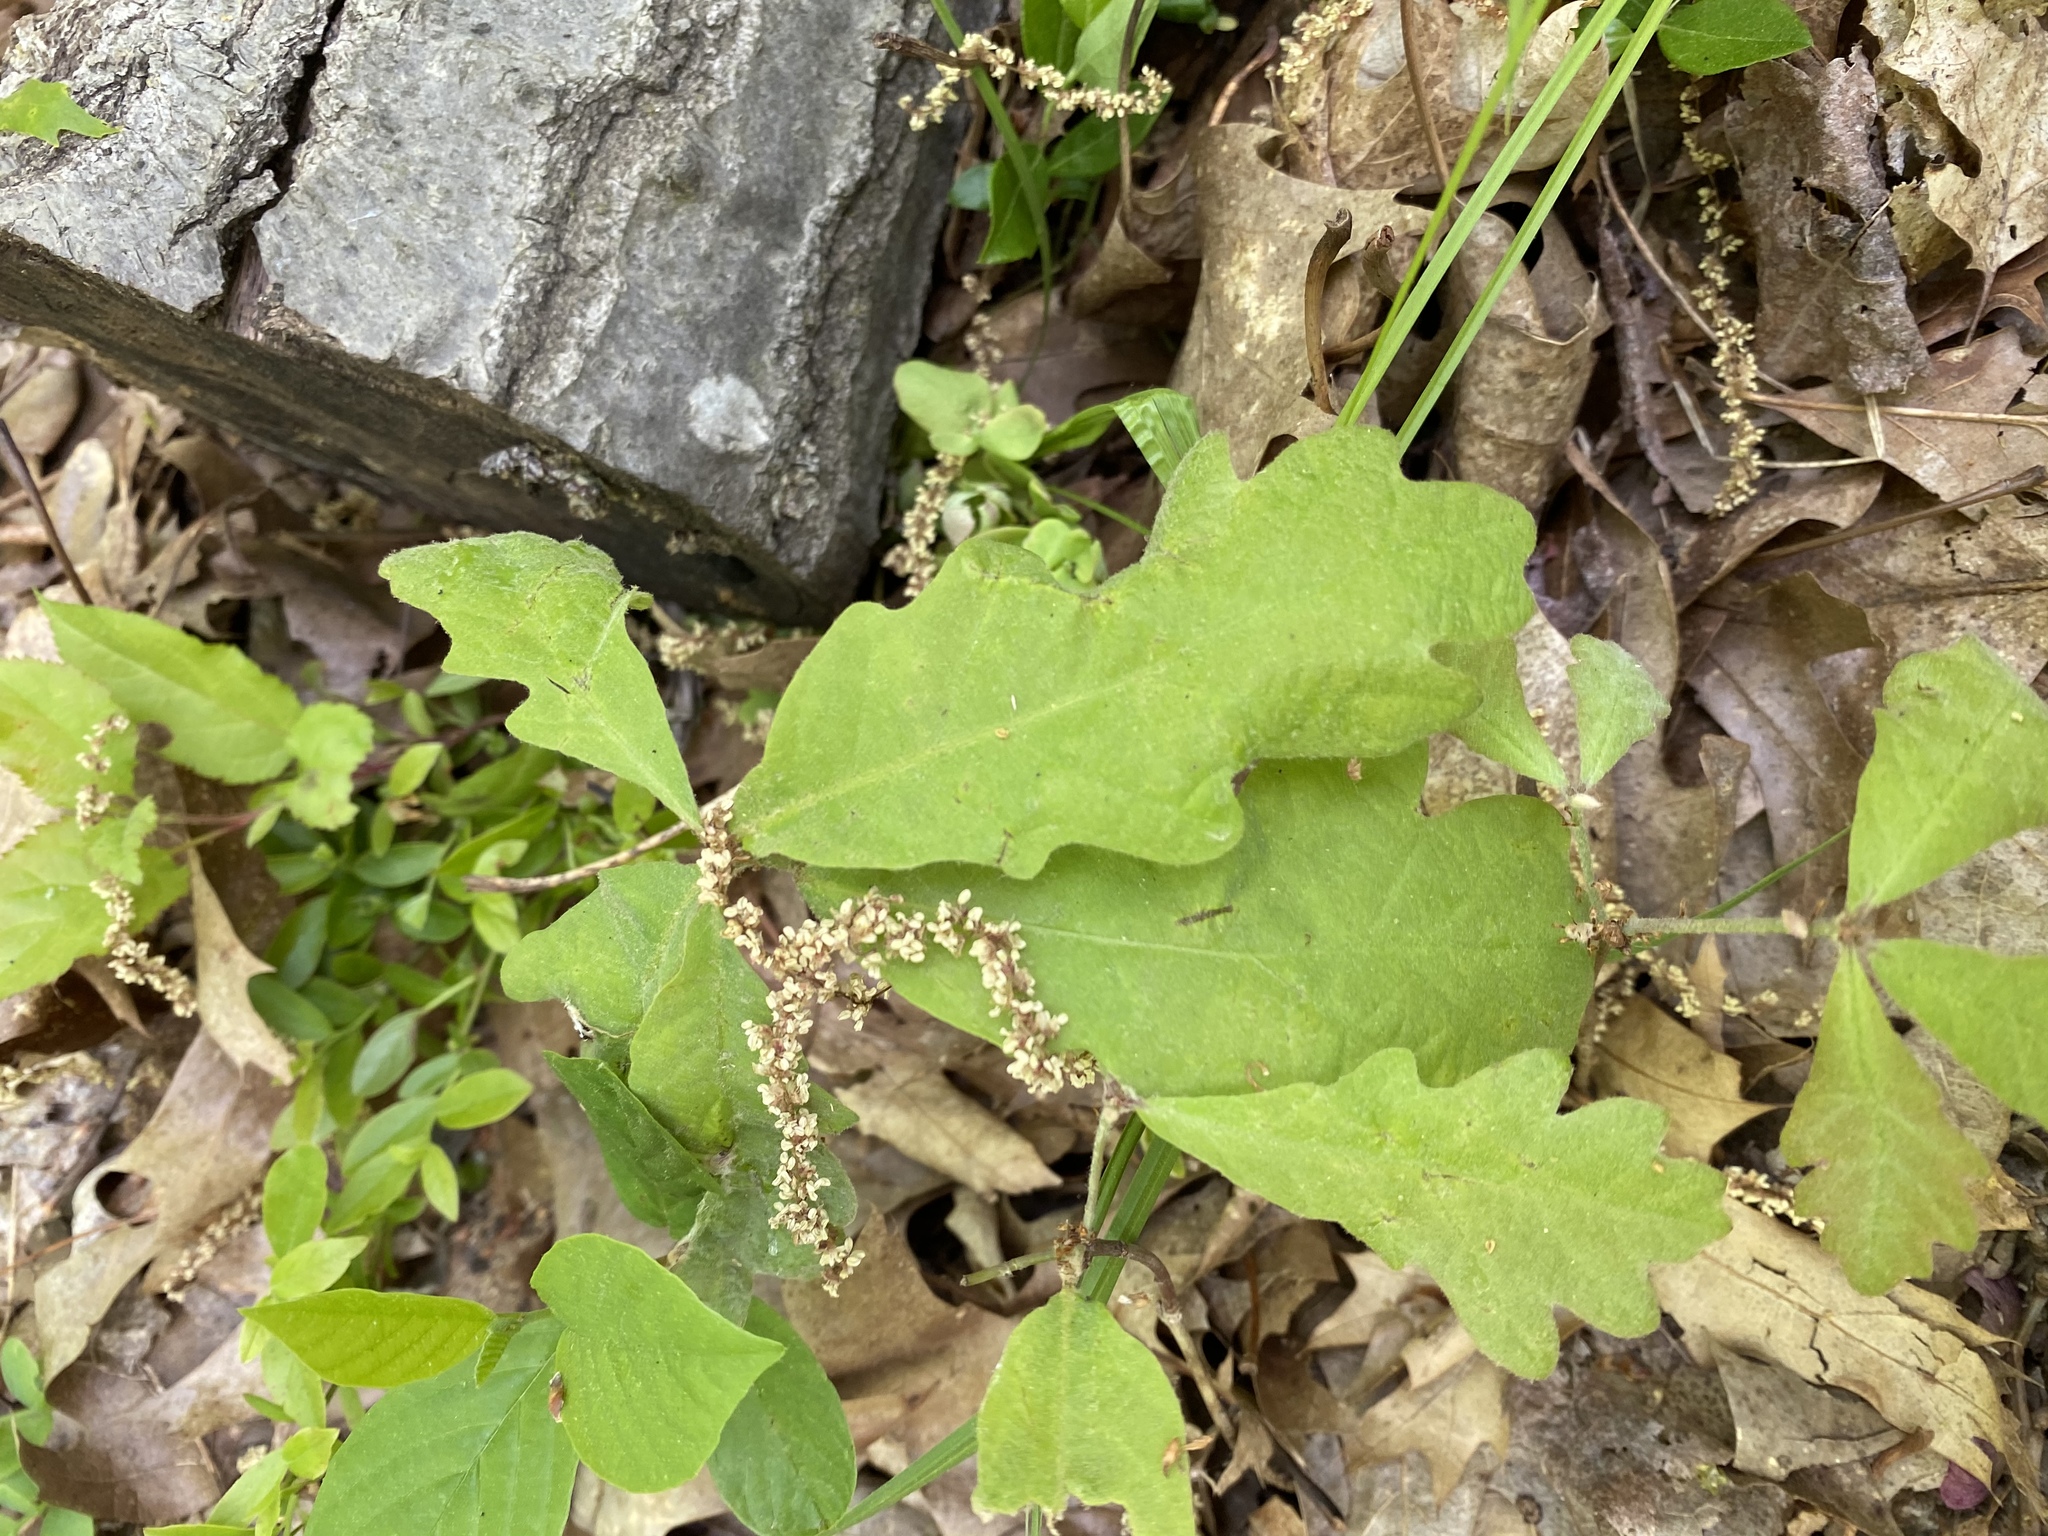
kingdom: Plantae
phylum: Tracheophyta
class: Magnoliopsida
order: Fagales
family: Fagaceae
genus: Quercus
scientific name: Quercus alba
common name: White oak
